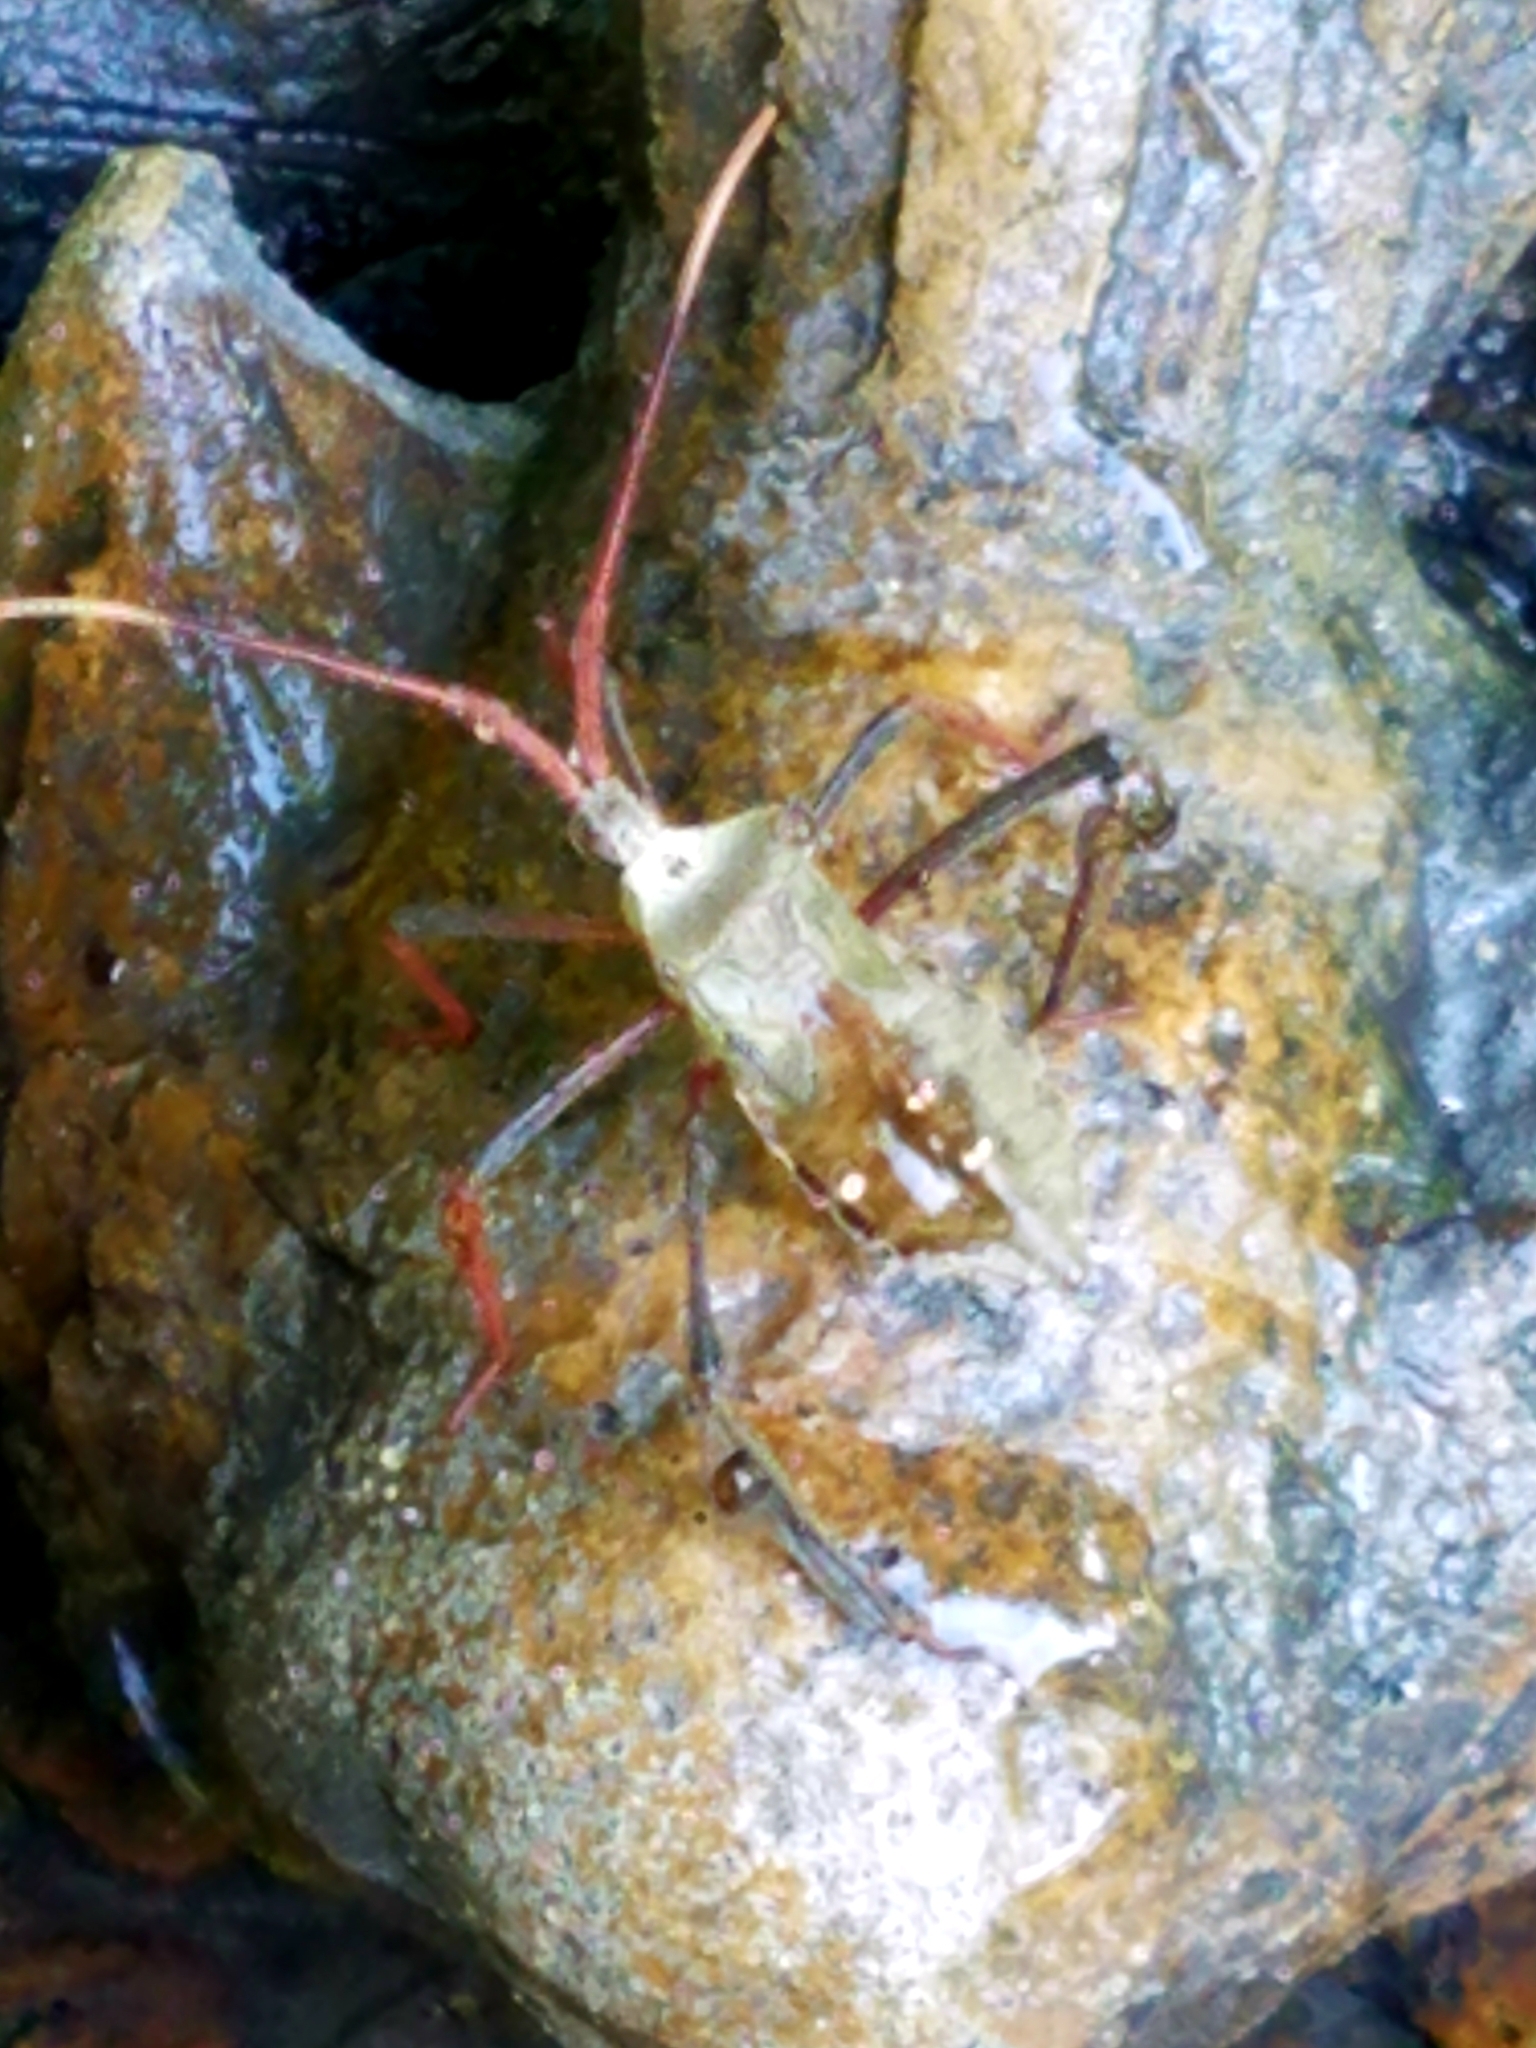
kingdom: Animalia
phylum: Arthropoda
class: Insecta
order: Hemiptera
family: Coreidae
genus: Acanthocephala
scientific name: Acanthocephala declivis
